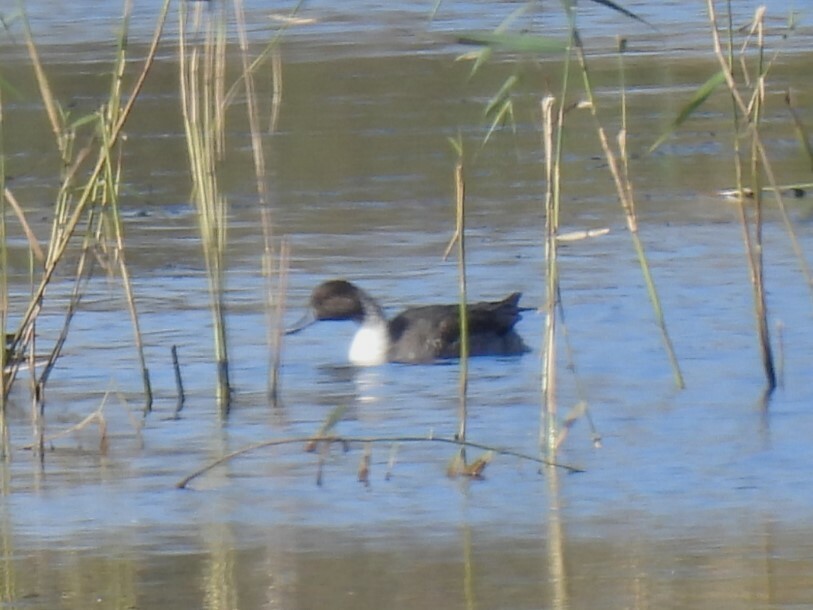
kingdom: Animalia
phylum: Chordata
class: Aves
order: Anseriformes
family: Anatidae
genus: Anas
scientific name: Anas acuta
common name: Northern pintail
